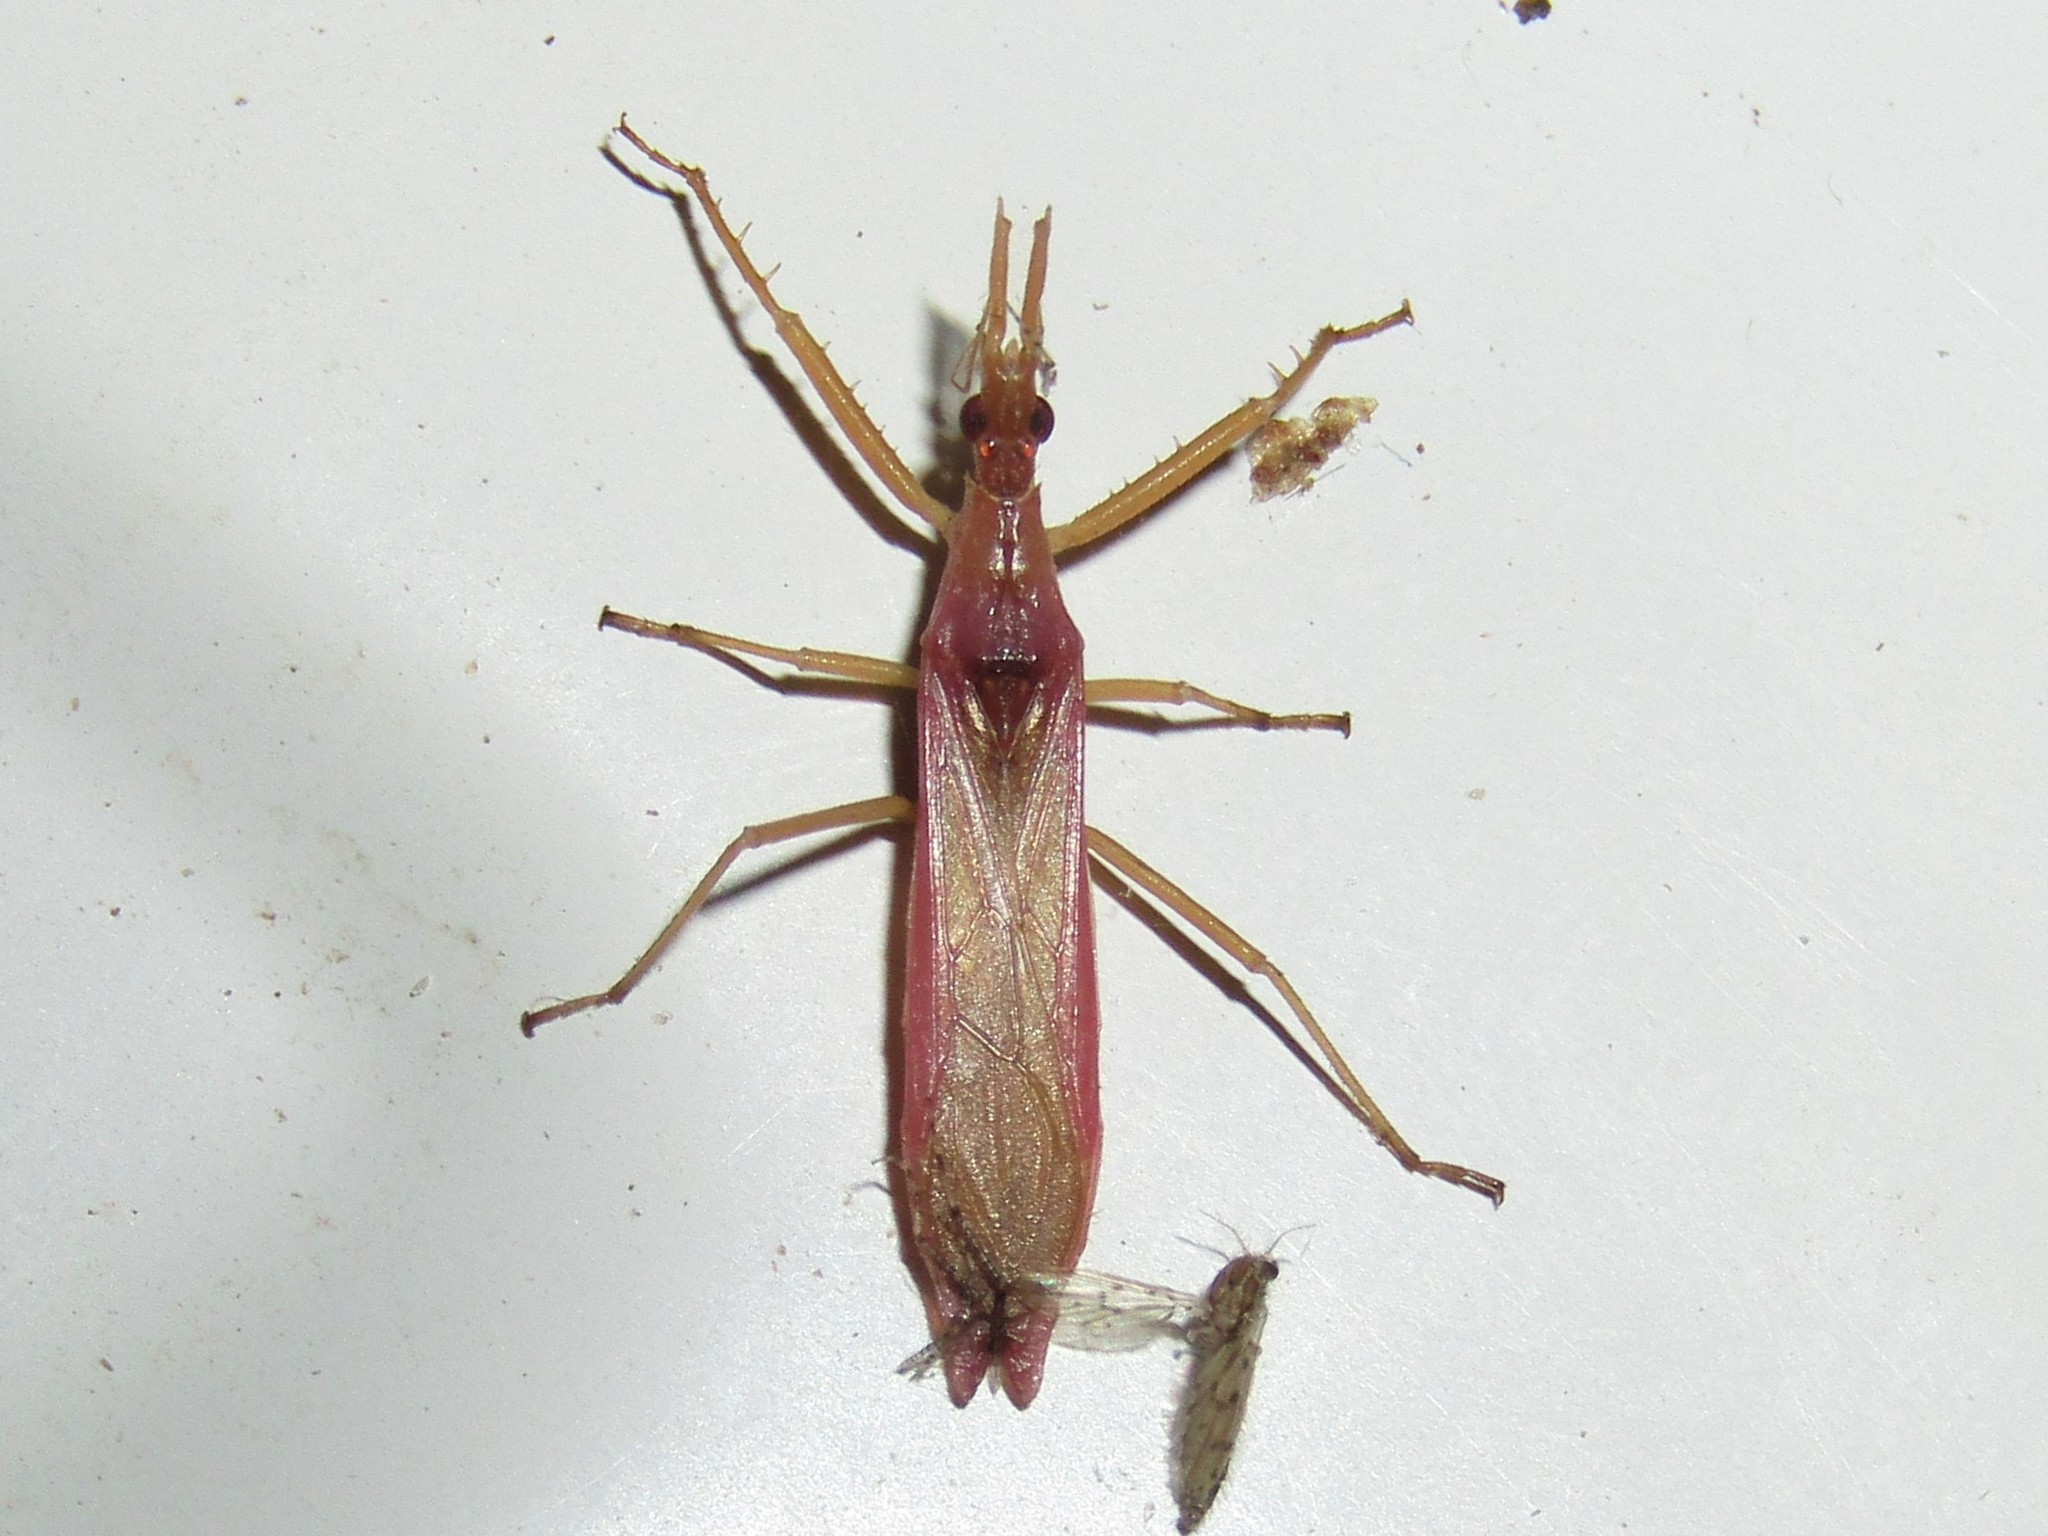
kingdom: Animalia
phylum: Arthropoda
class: Insecta
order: Hemiptera
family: Reduviidae
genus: Pnirontis
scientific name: Pnirontis languida
